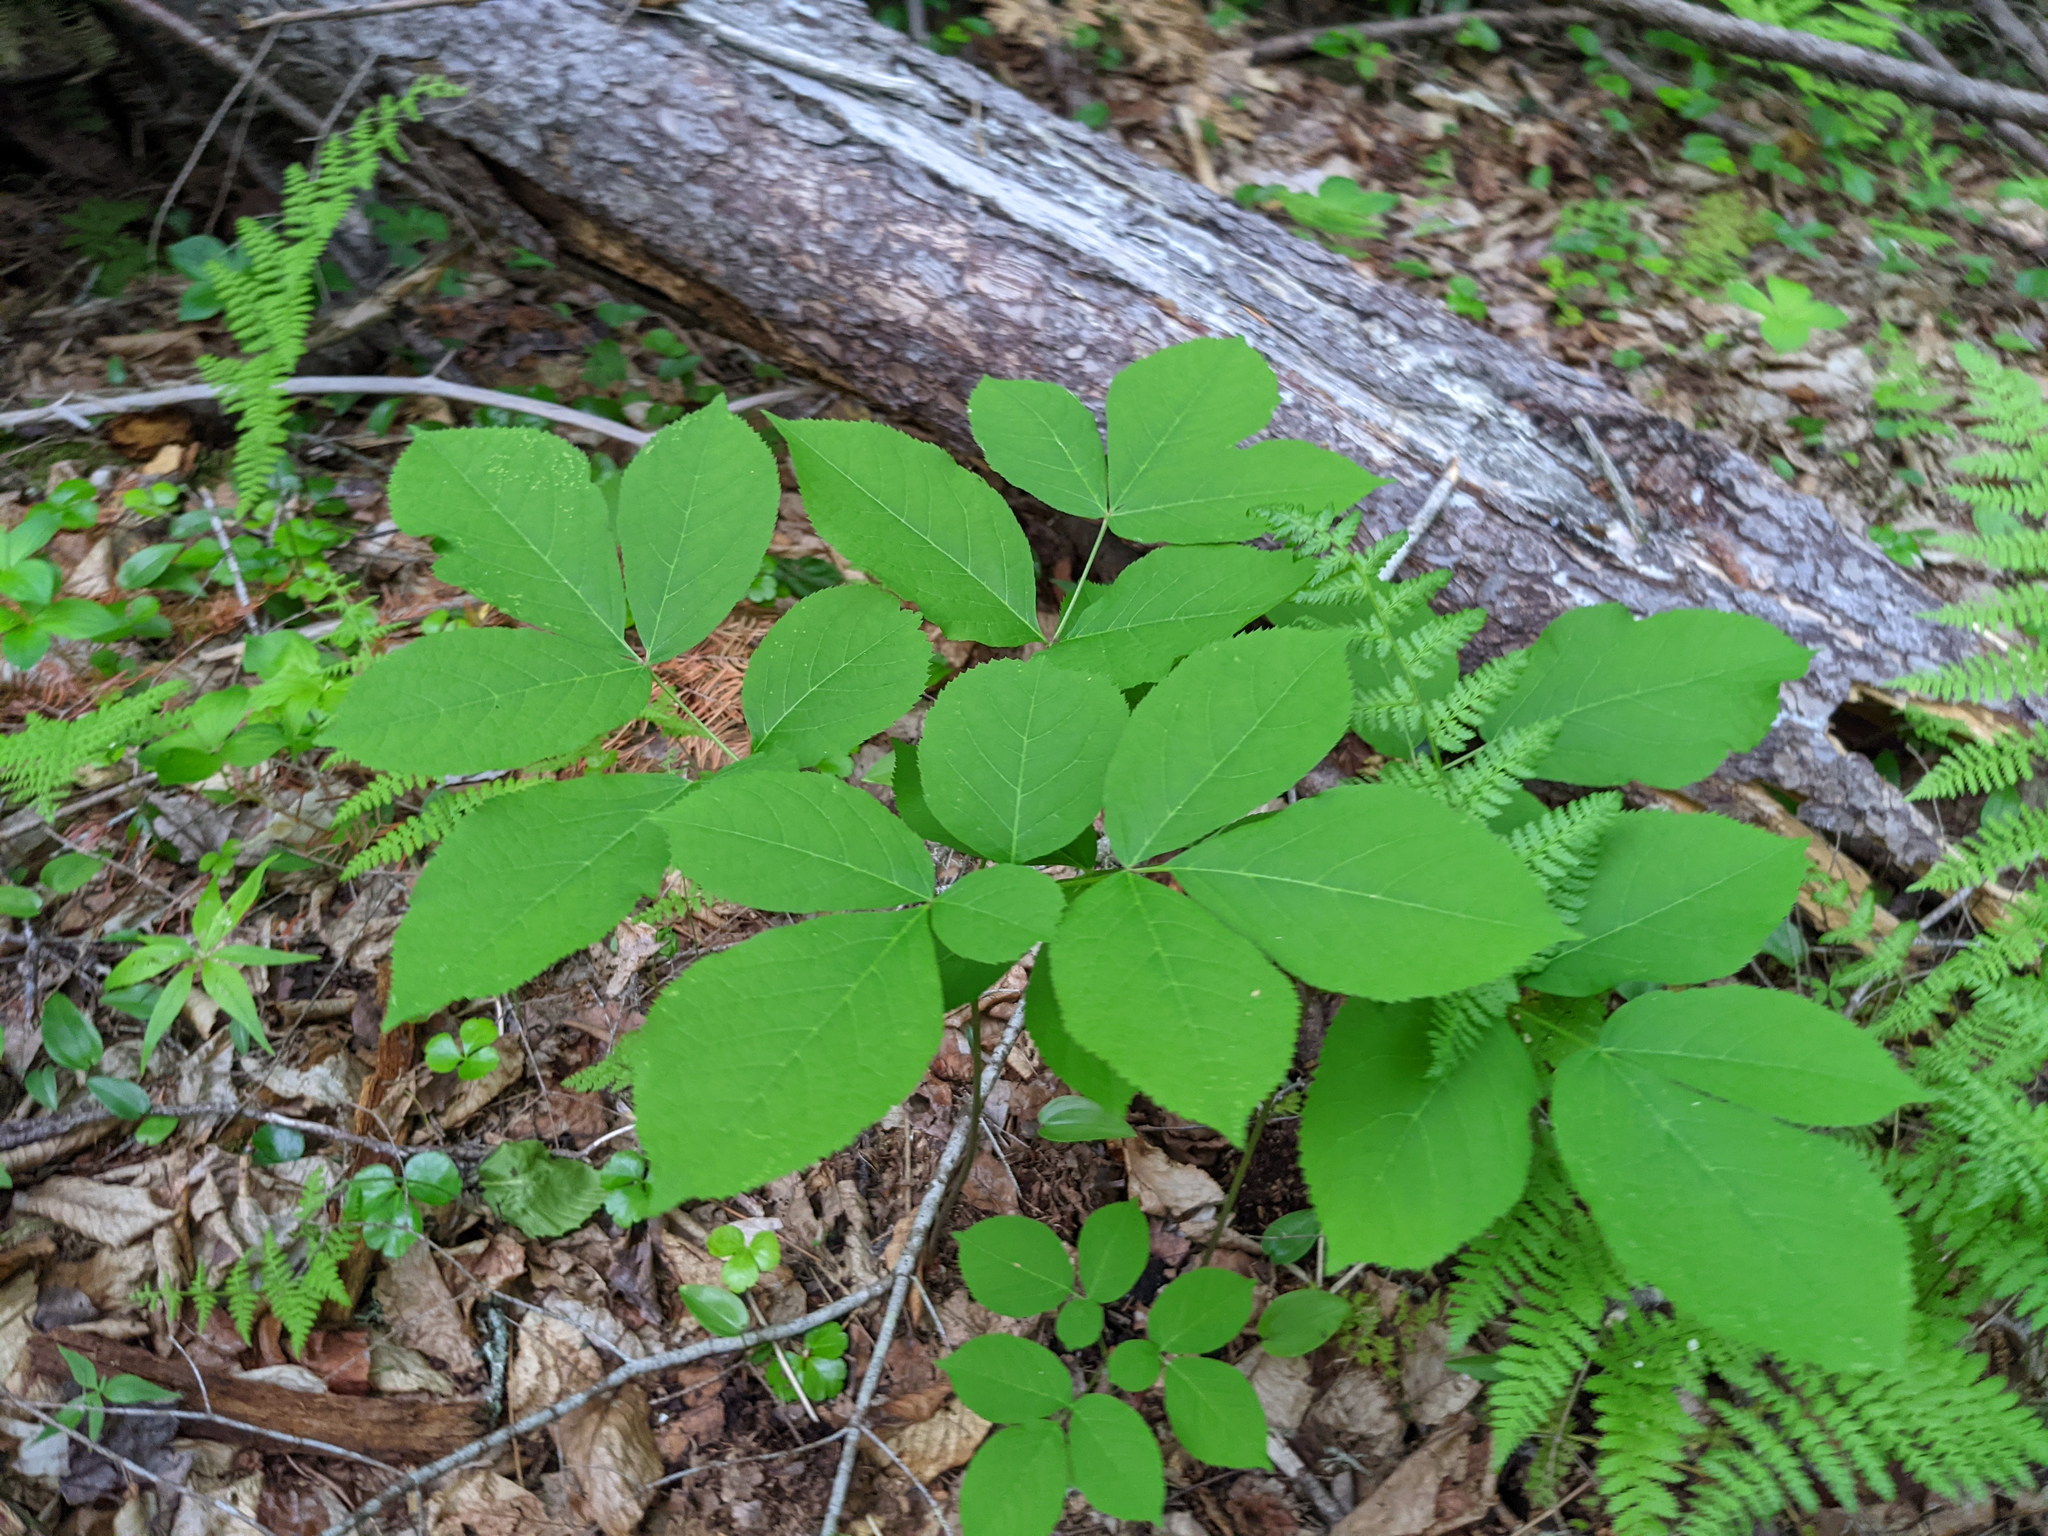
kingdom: Plantae
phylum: Tracheophyta
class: Magnoliopsida
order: Apiales
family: Araliaceae
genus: Aralia
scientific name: Aralia nudicaulis
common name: Wild sarsaparilla
